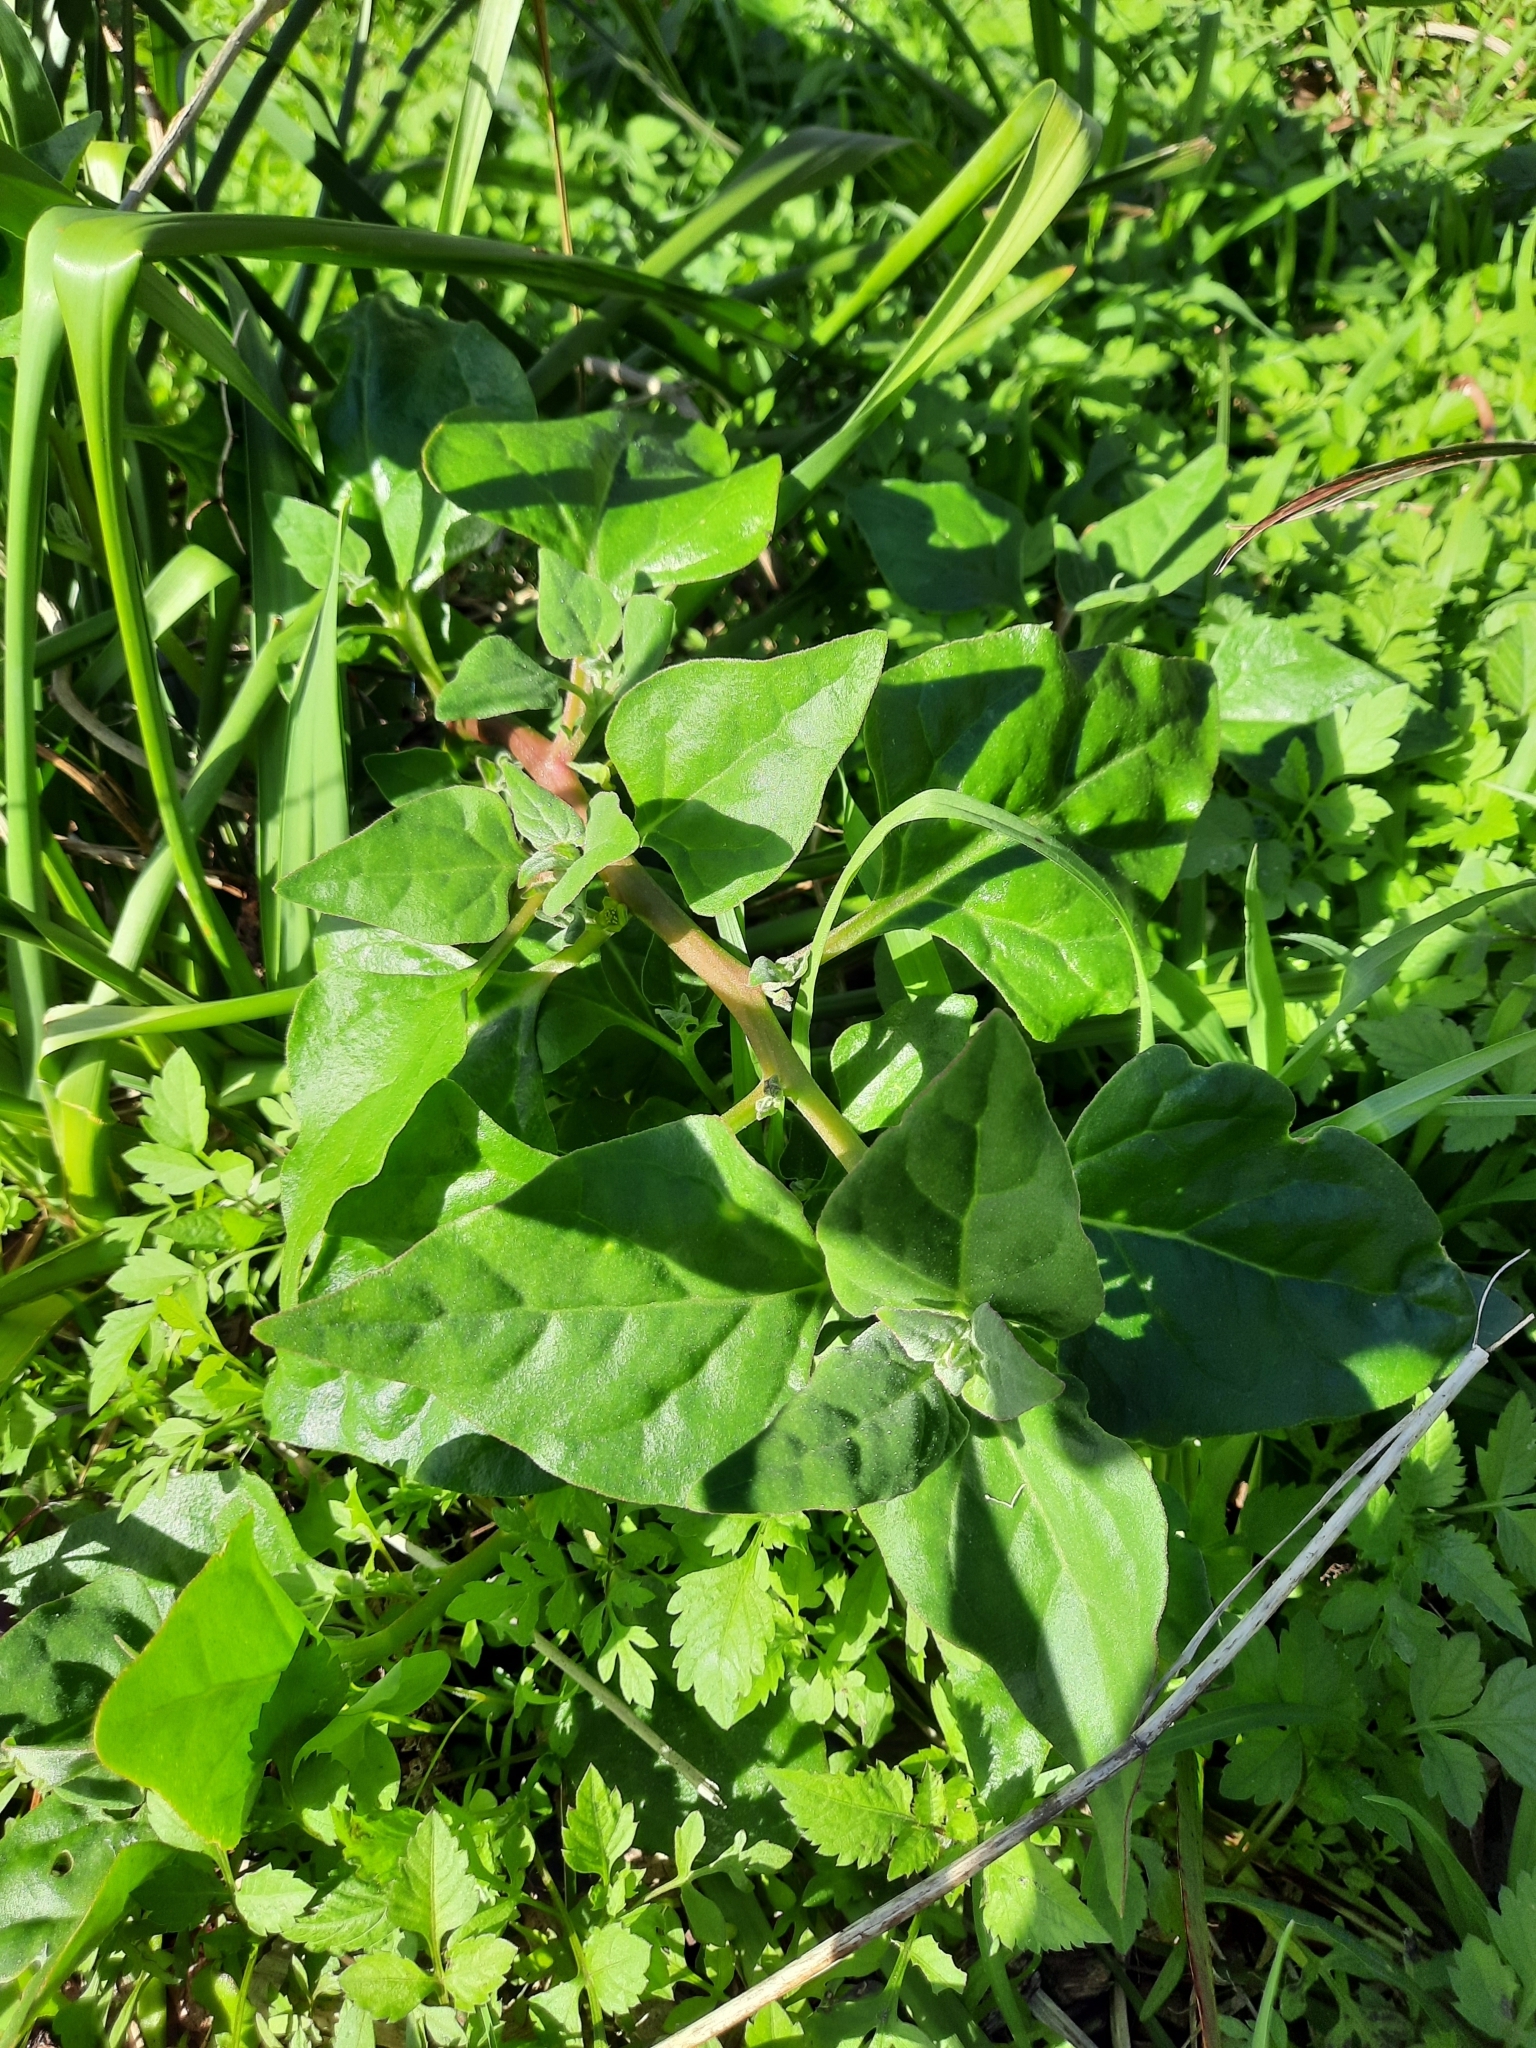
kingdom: Plantae
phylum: Tracheophyta
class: Magnoliopsida
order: Caryophyllales
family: Aizoaceae
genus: Tetragonia
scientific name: Tetragonia tetragonoides
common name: New zealand-spinach
